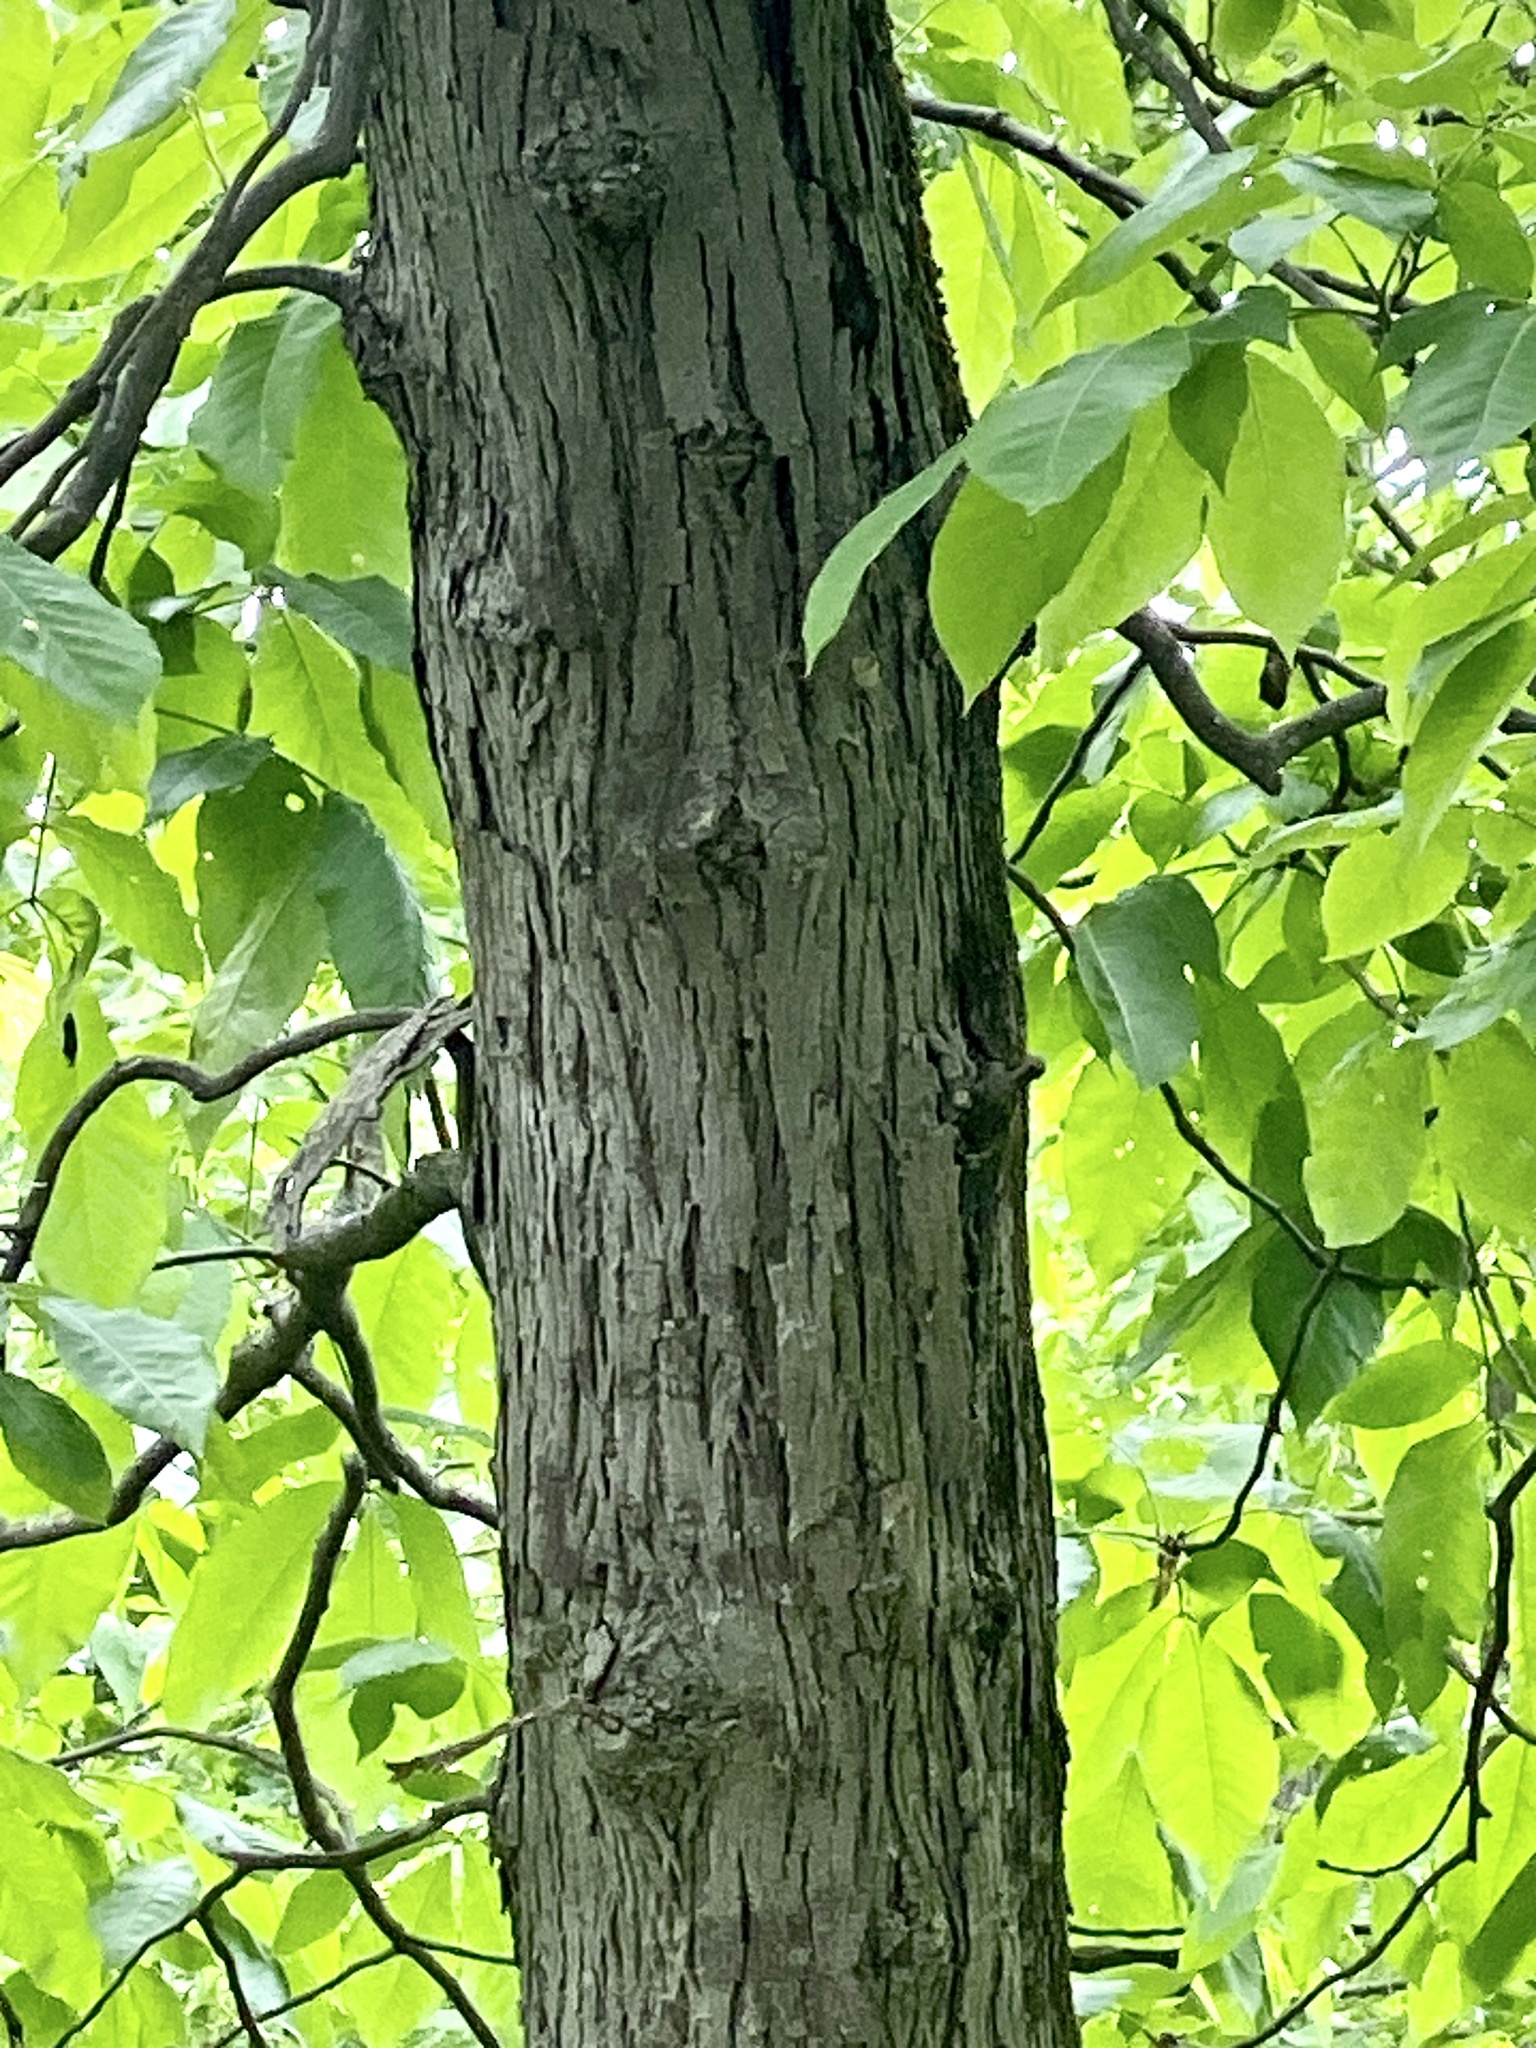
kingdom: Plantae
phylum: Tracheophyta
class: Magnoliopsida
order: Fagales
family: Juglandaceae
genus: Carya
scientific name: Carya ovata
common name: Shagbark hickory
